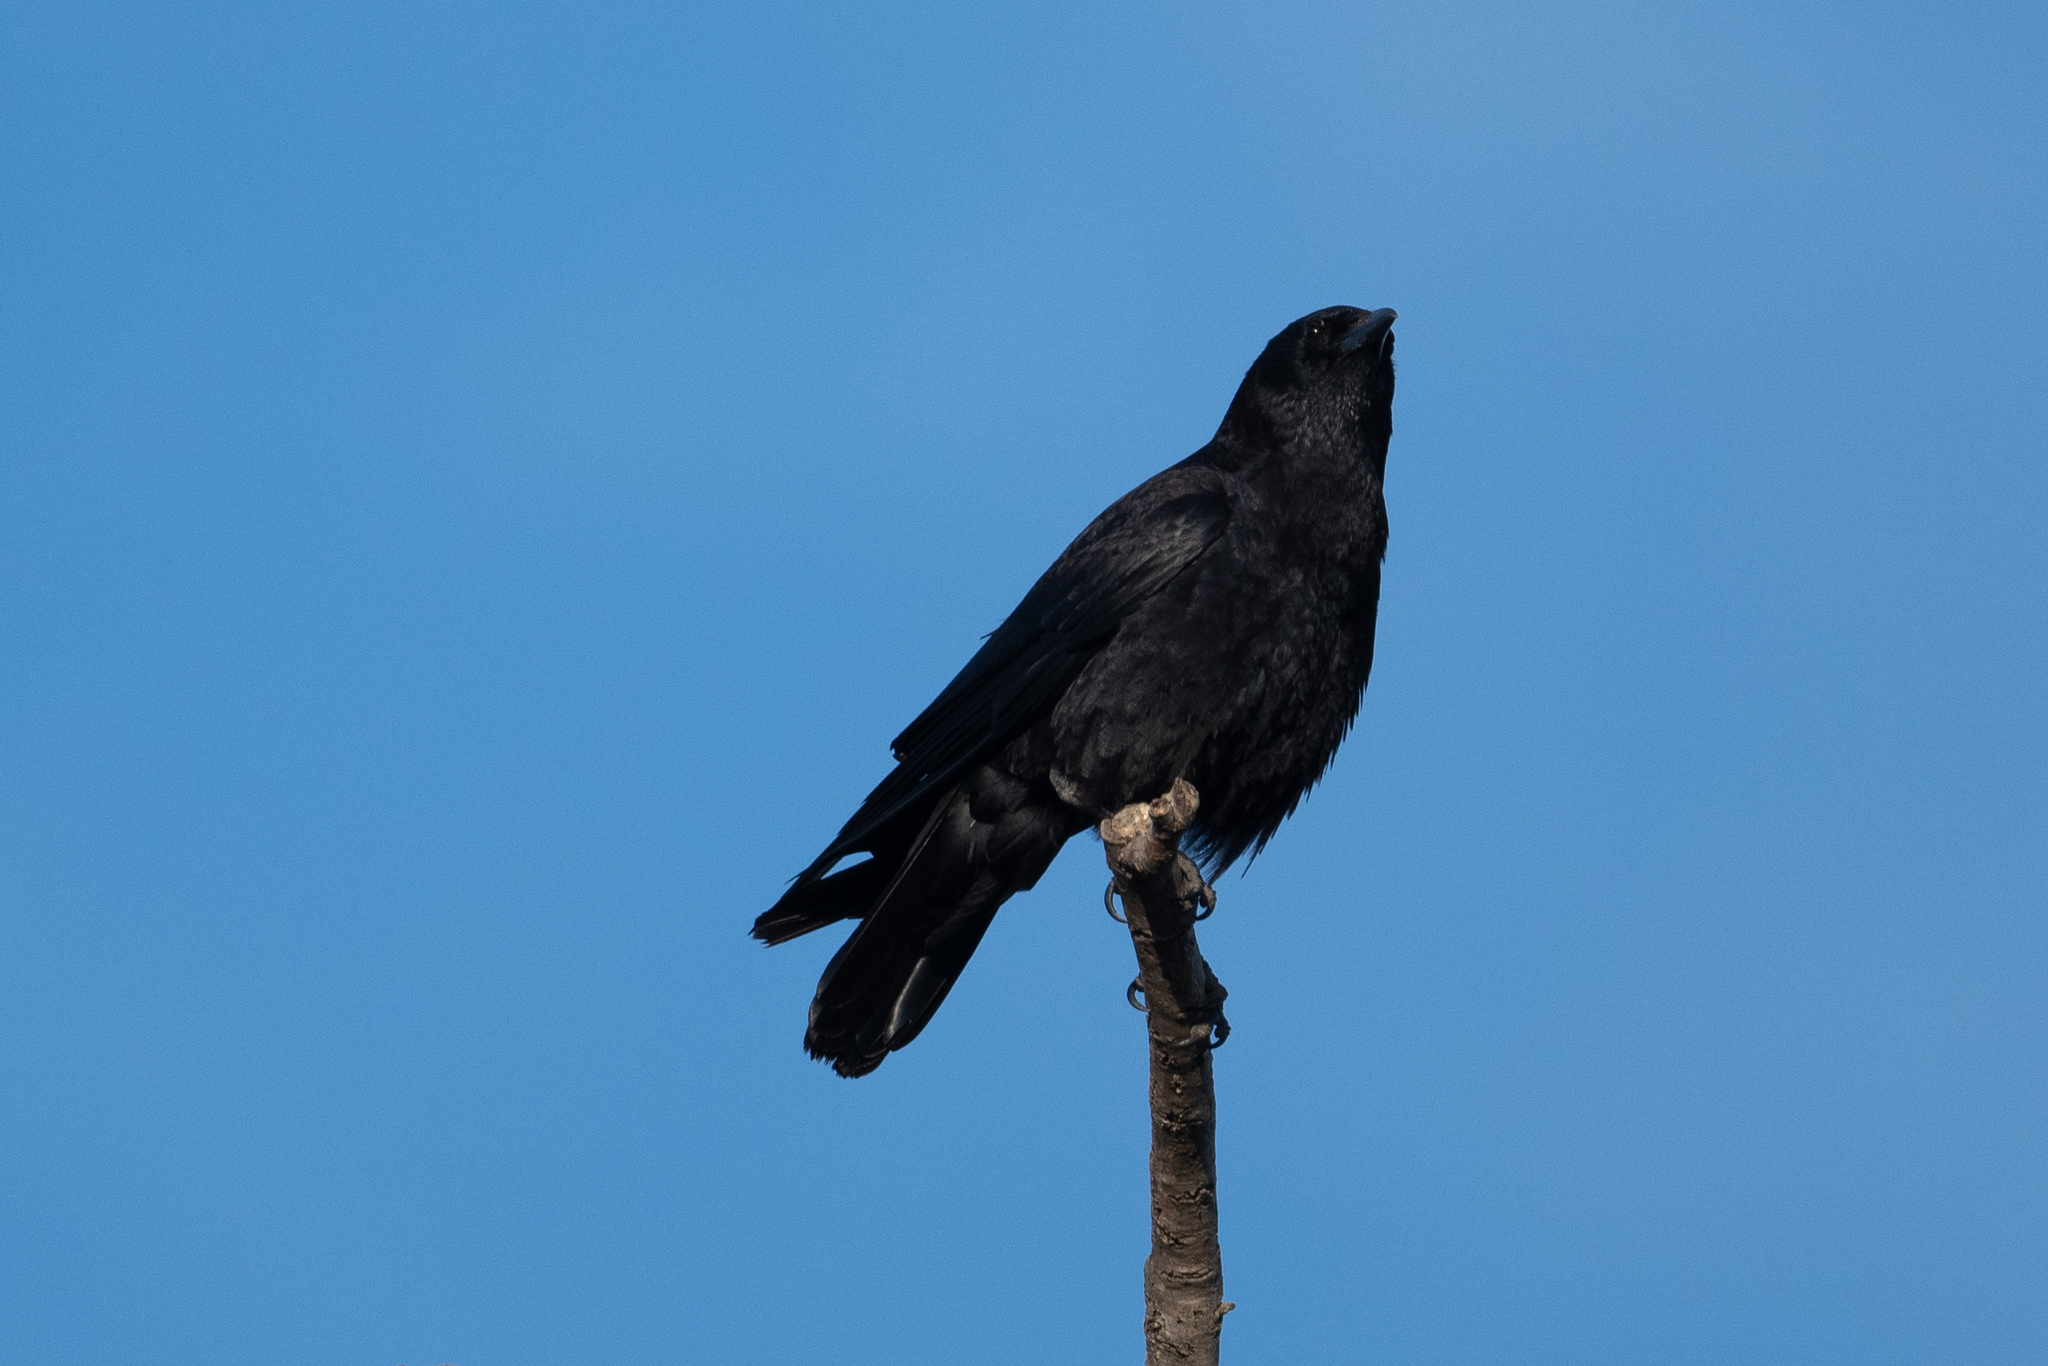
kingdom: Animalia
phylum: Chordata
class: Aves
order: Passeriformes
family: Corvidae
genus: Corvus
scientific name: Corvus brachyrhynchos
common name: American crow
